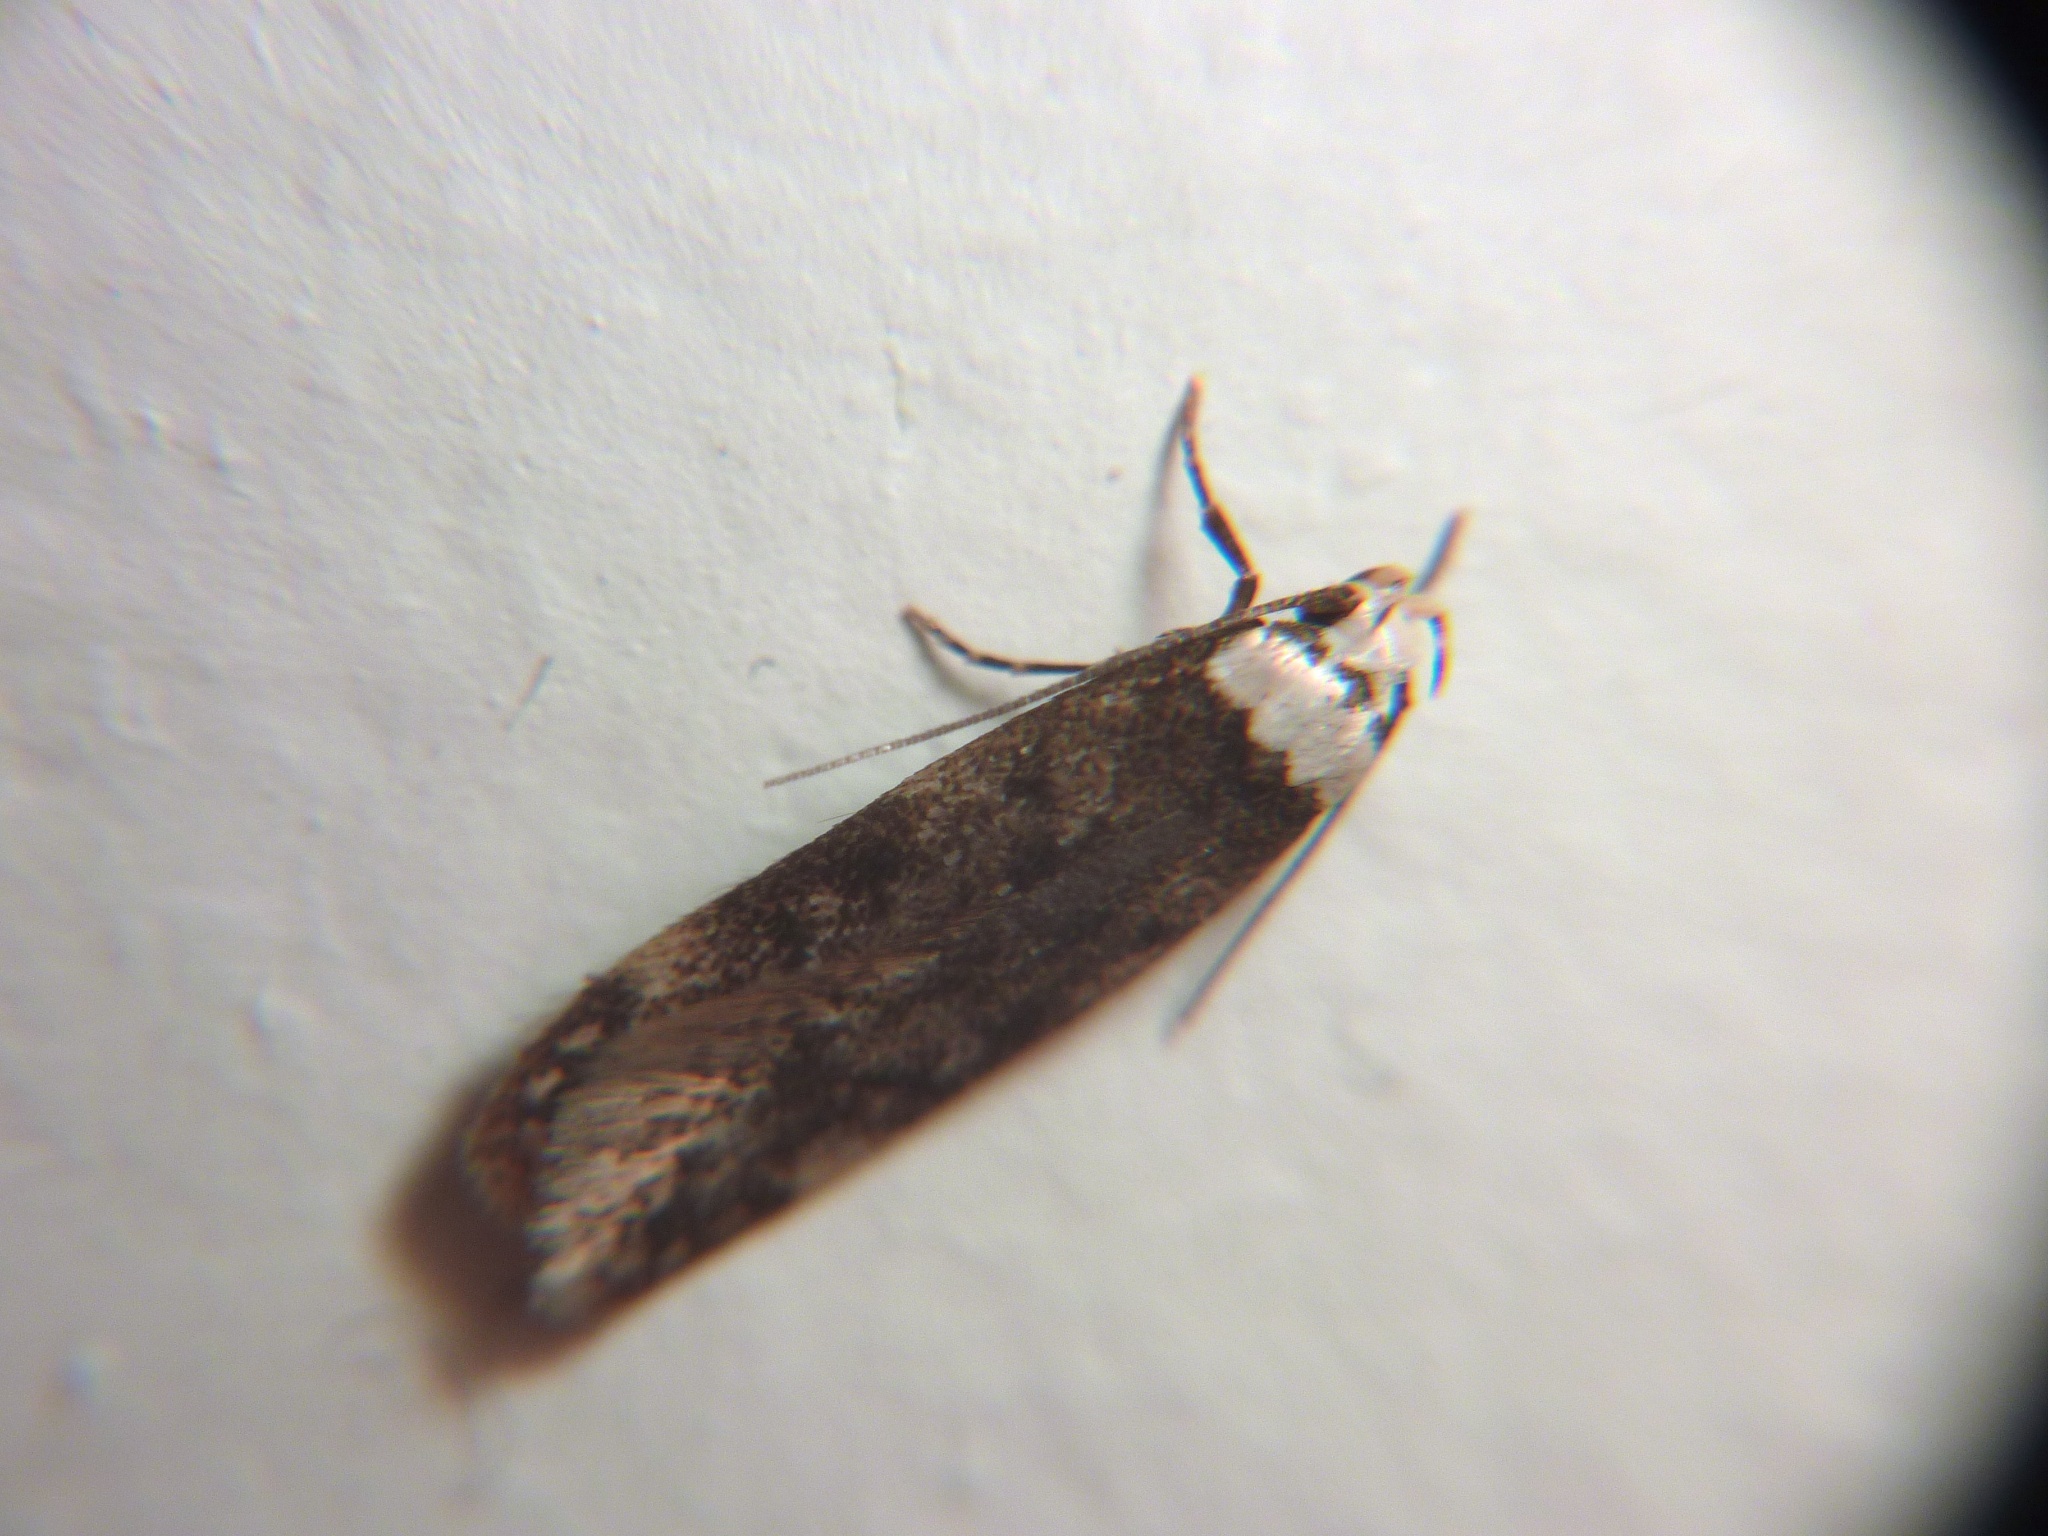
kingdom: Animalia
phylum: Arthropoda
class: Insecta
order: Lepidoptera
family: Oecophoridae
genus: Endrosis
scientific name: Endrosis sarcitrella
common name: White-shouldered house moth
